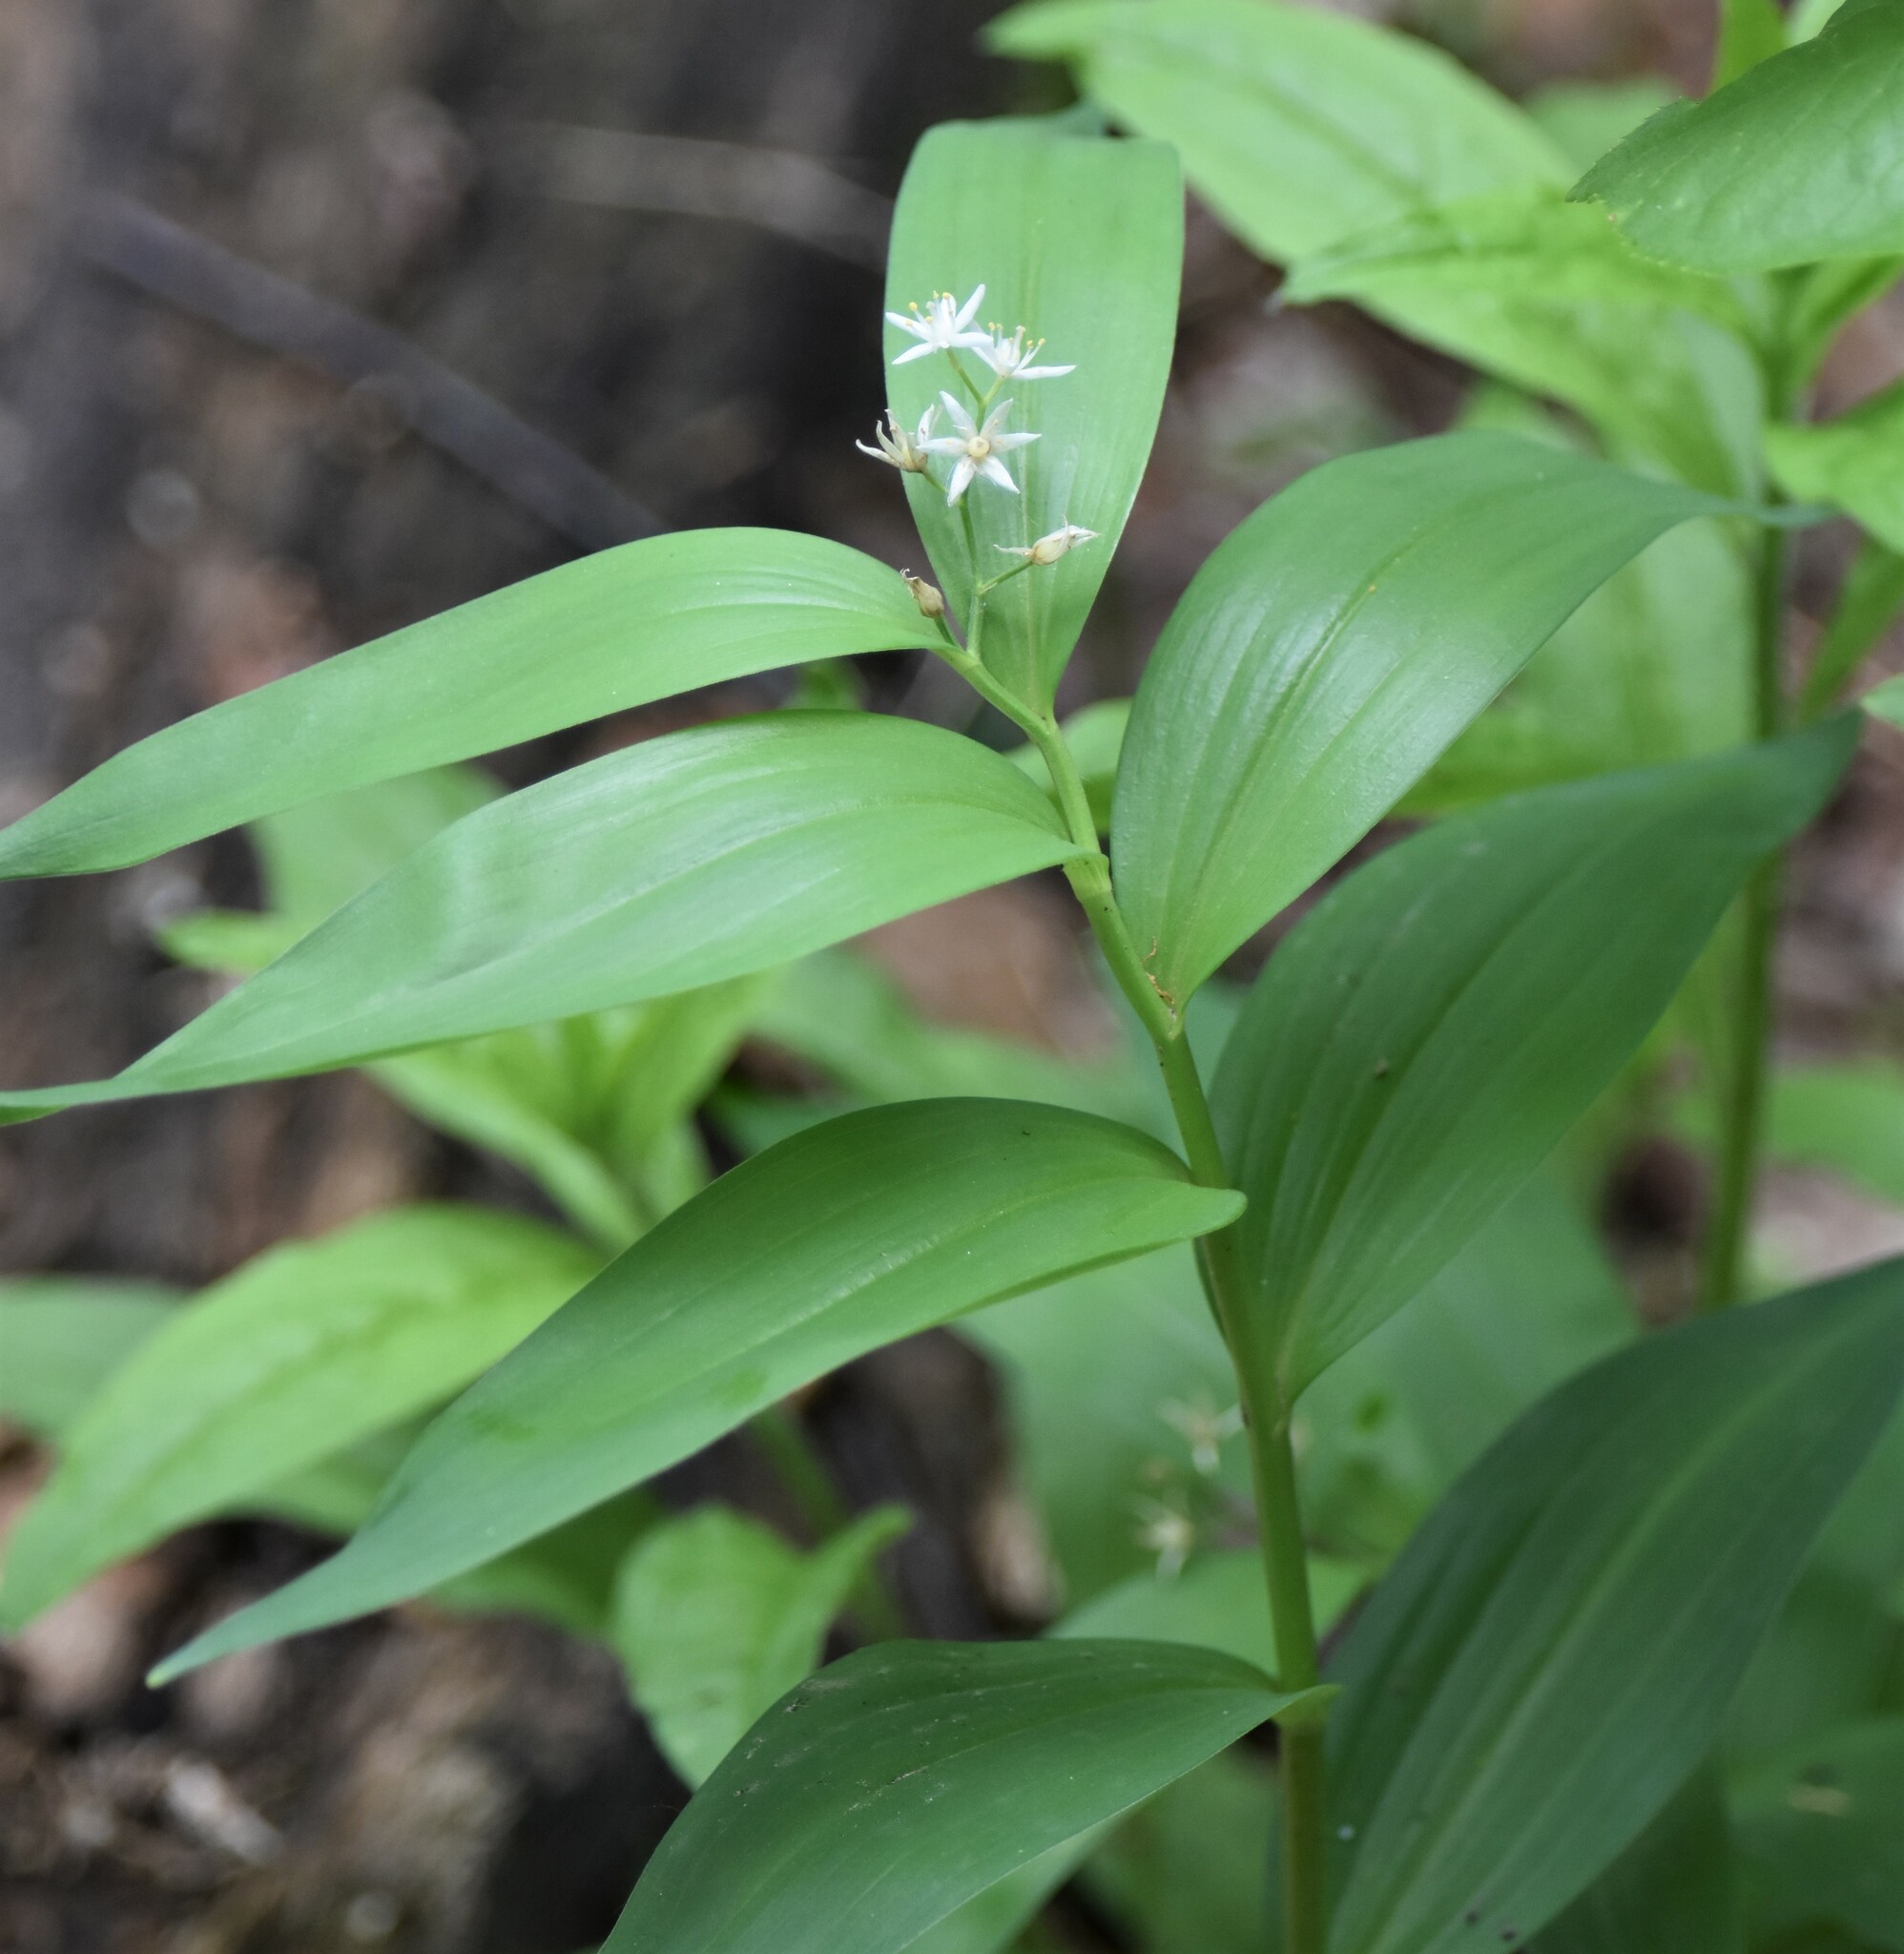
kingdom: Plantae
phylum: Tracheophyta
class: Liliopsida
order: Asparagales
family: Asparagaceae
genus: Maianthemum
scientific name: Maianthemum stellatum
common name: Little false solomon's seal
